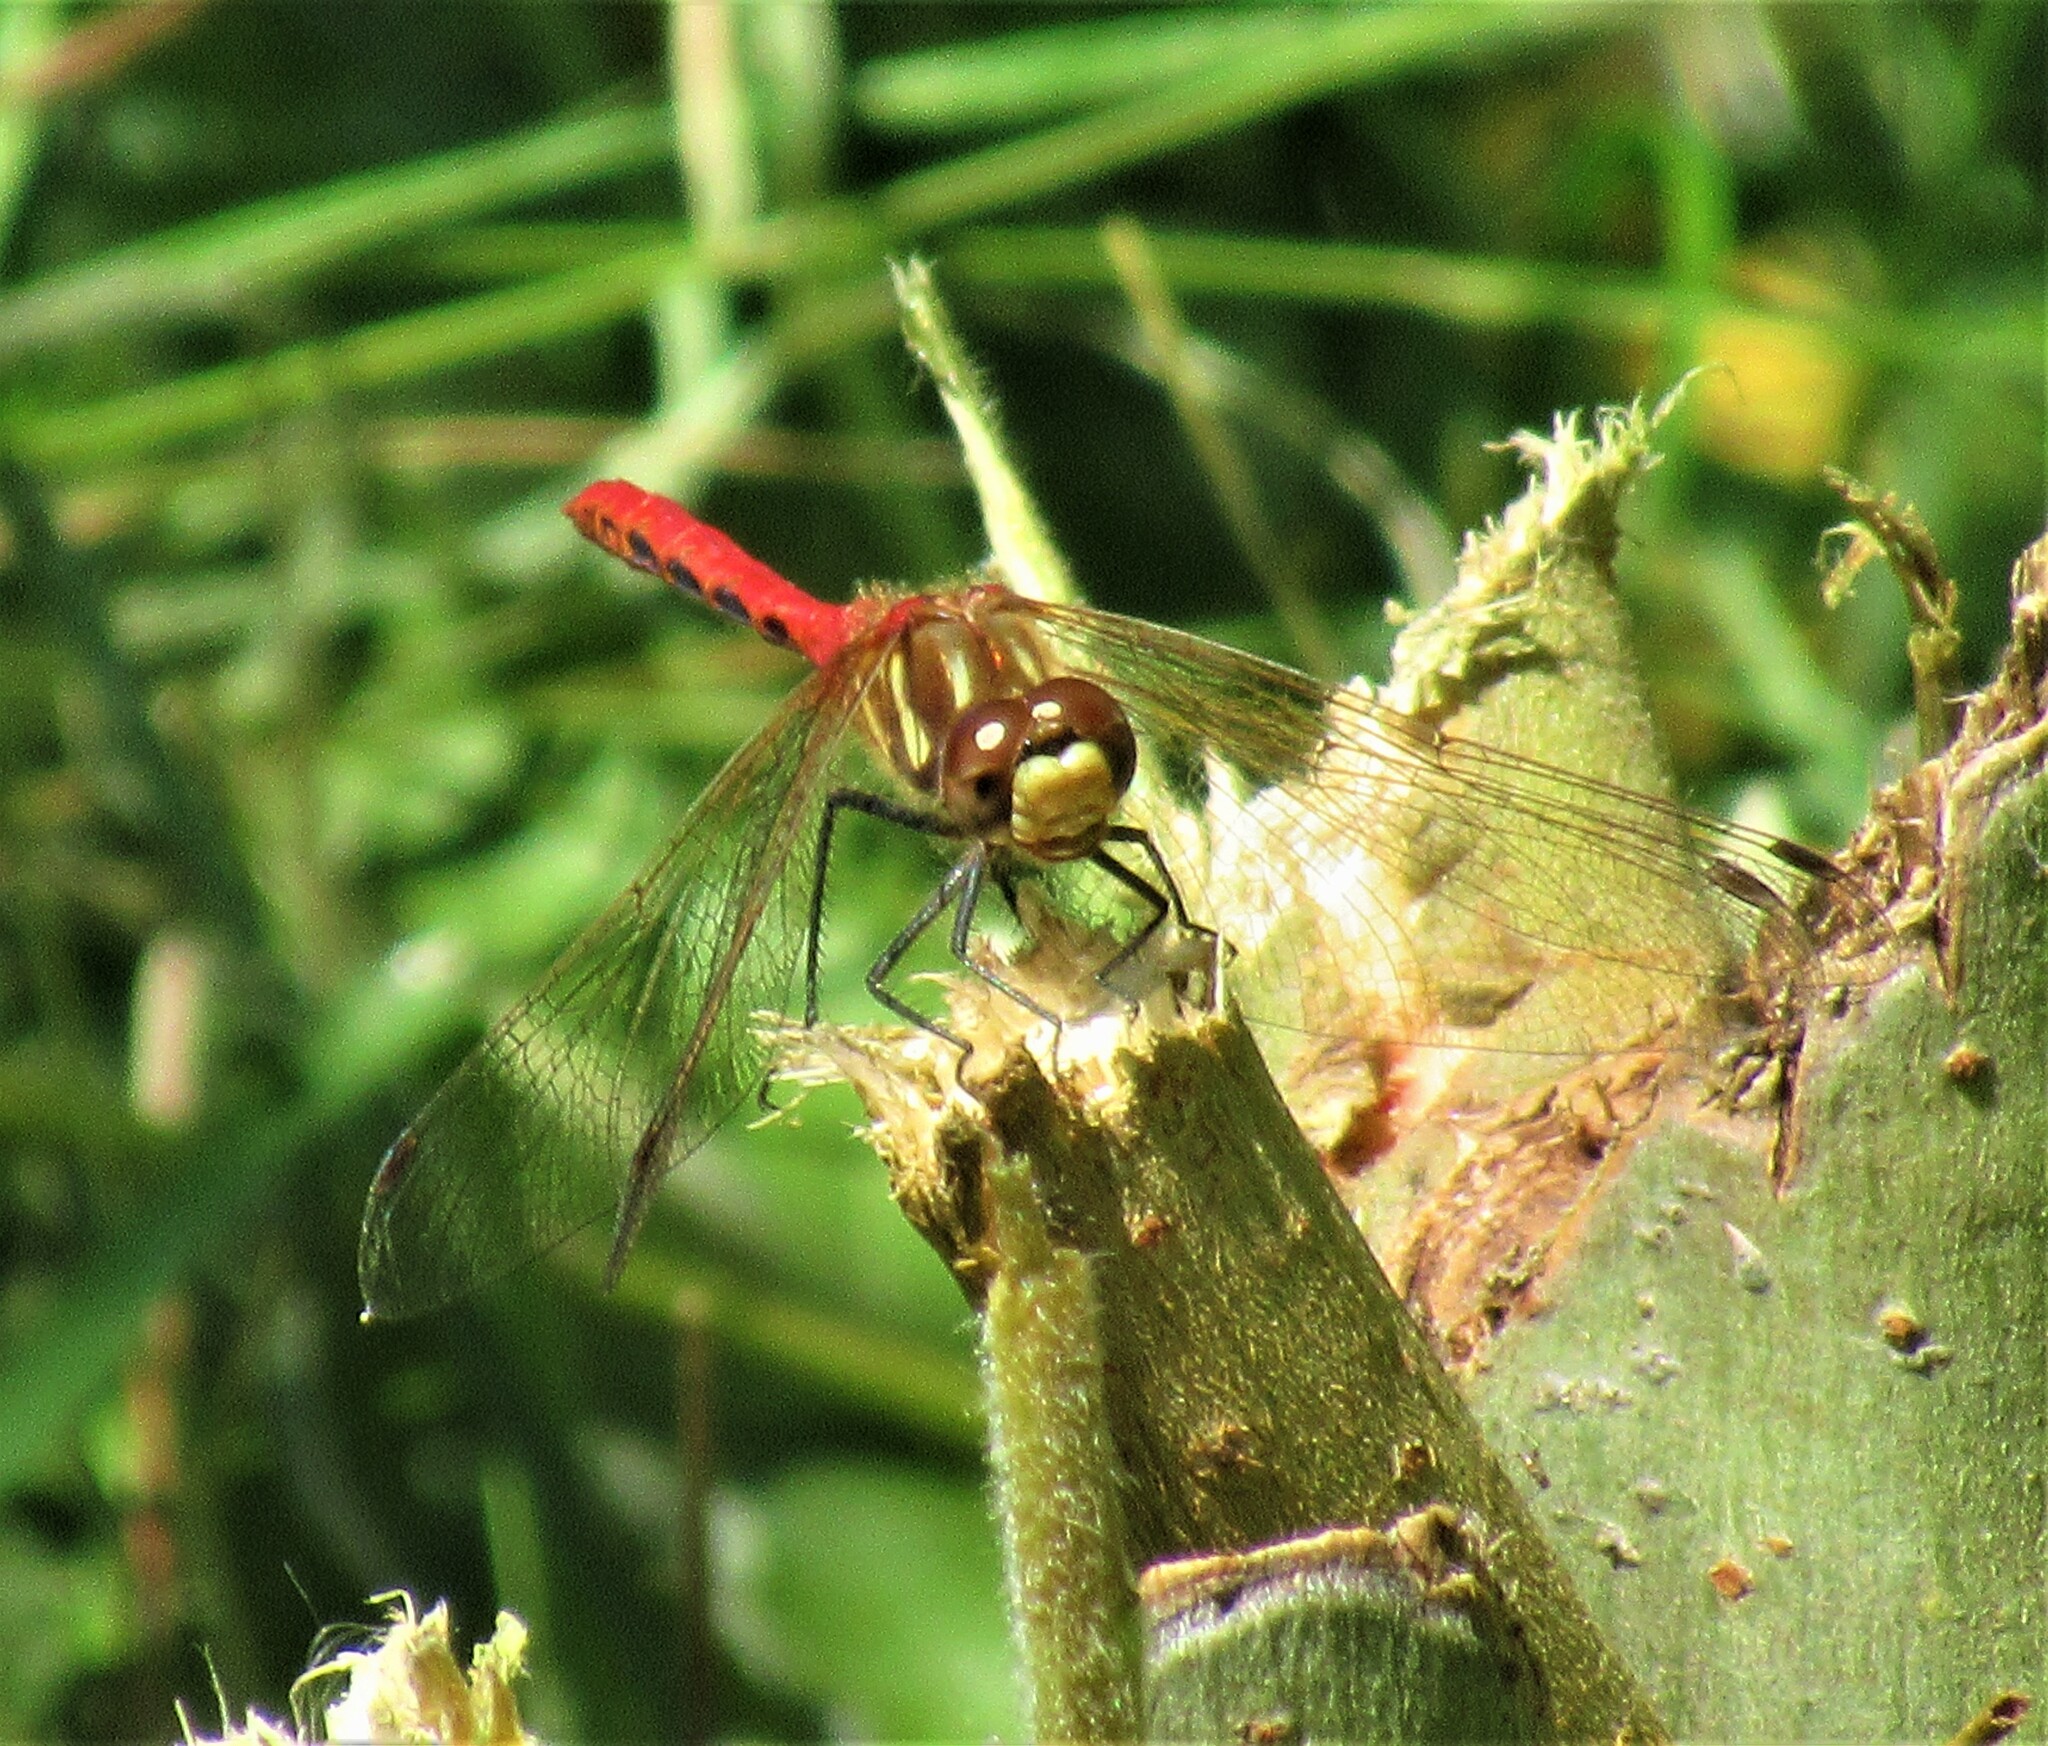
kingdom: Animalia
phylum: Arthropoda
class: Insecta
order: Odonata
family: Libellulidae
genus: Sympetrum
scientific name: Sympetrum pallipes
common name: Striped meadowhawk
